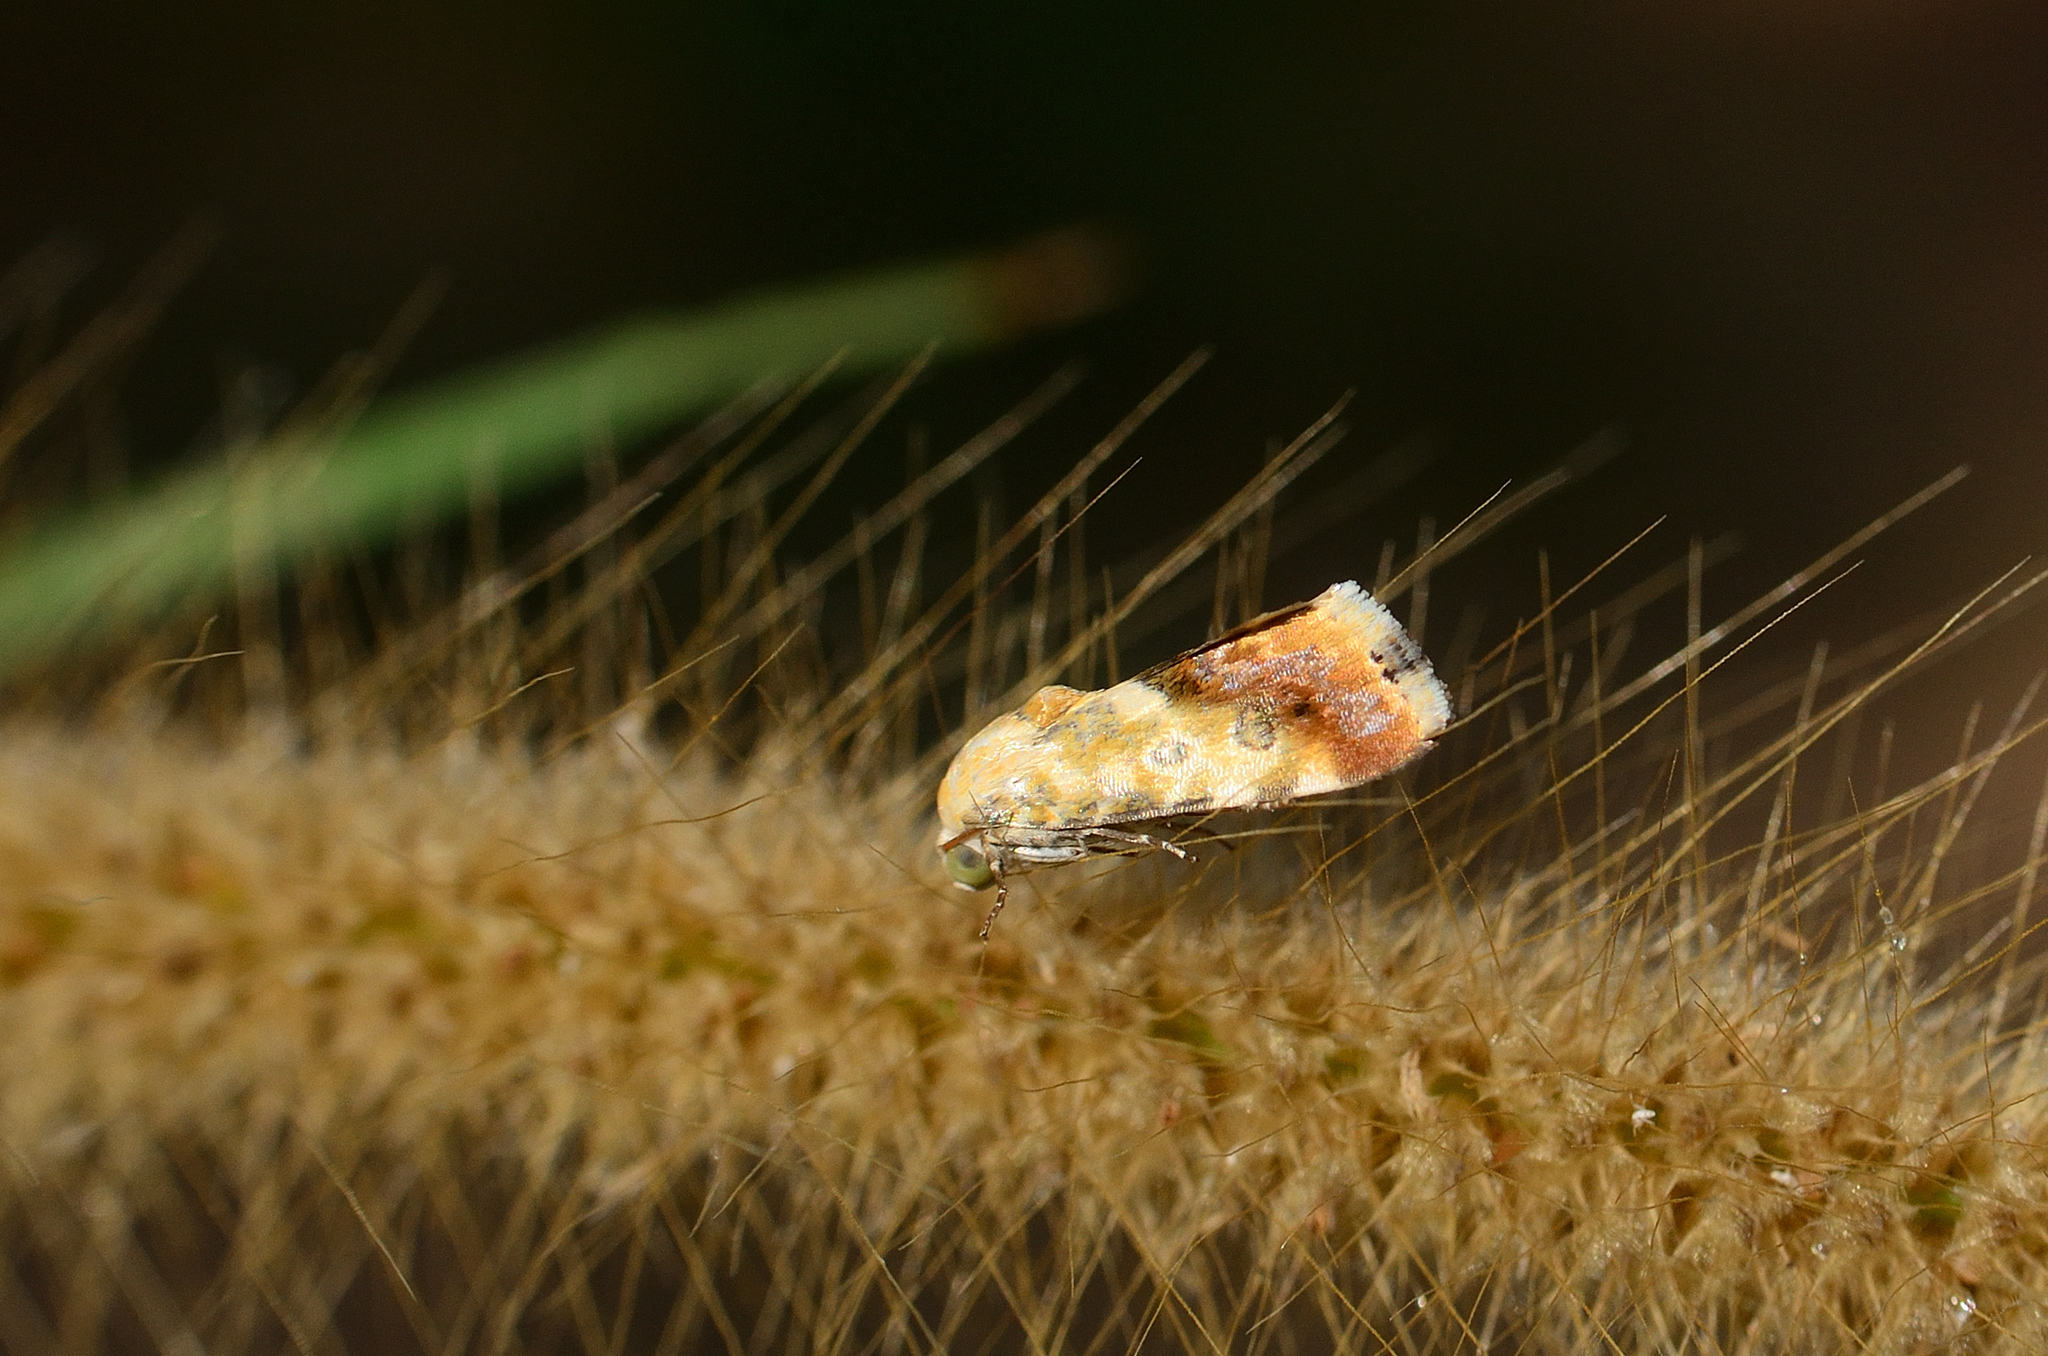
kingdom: Animalia
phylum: Arthropoda
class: Insecta
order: Lepidoptera
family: Noctuidae
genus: Acontia
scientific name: Acontia marmoralis
